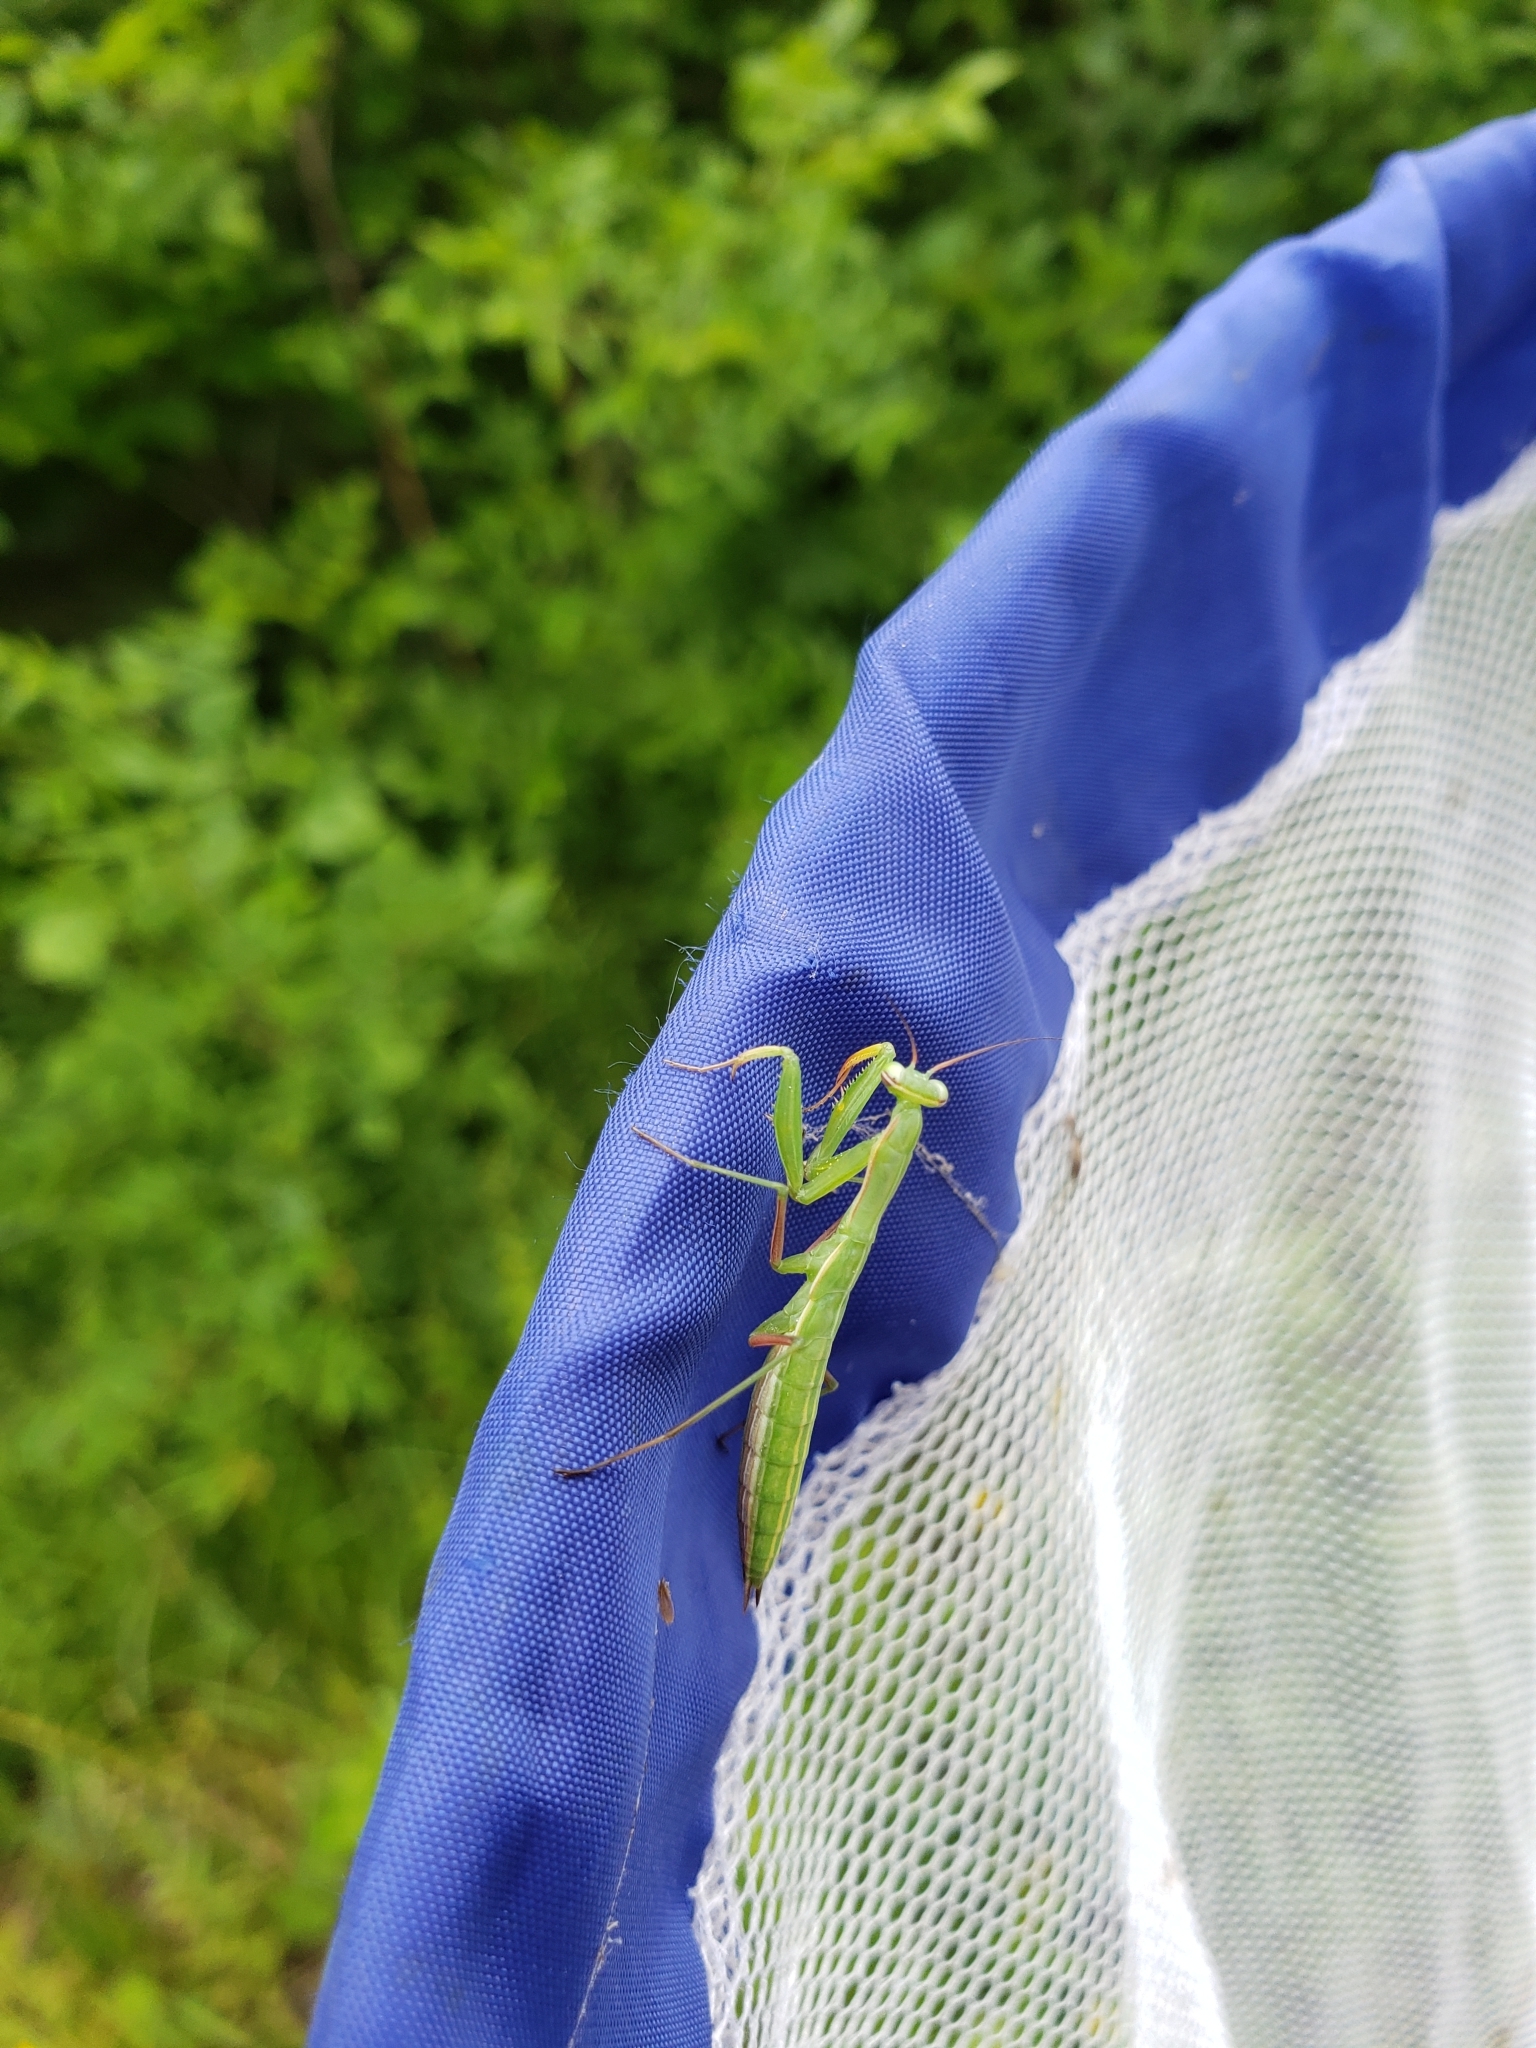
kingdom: Animalia
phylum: Arthropoda
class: Insecta
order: Mantodea
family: Mantidae
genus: Mantis
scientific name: Mantis religiosa
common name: Praying mantis
